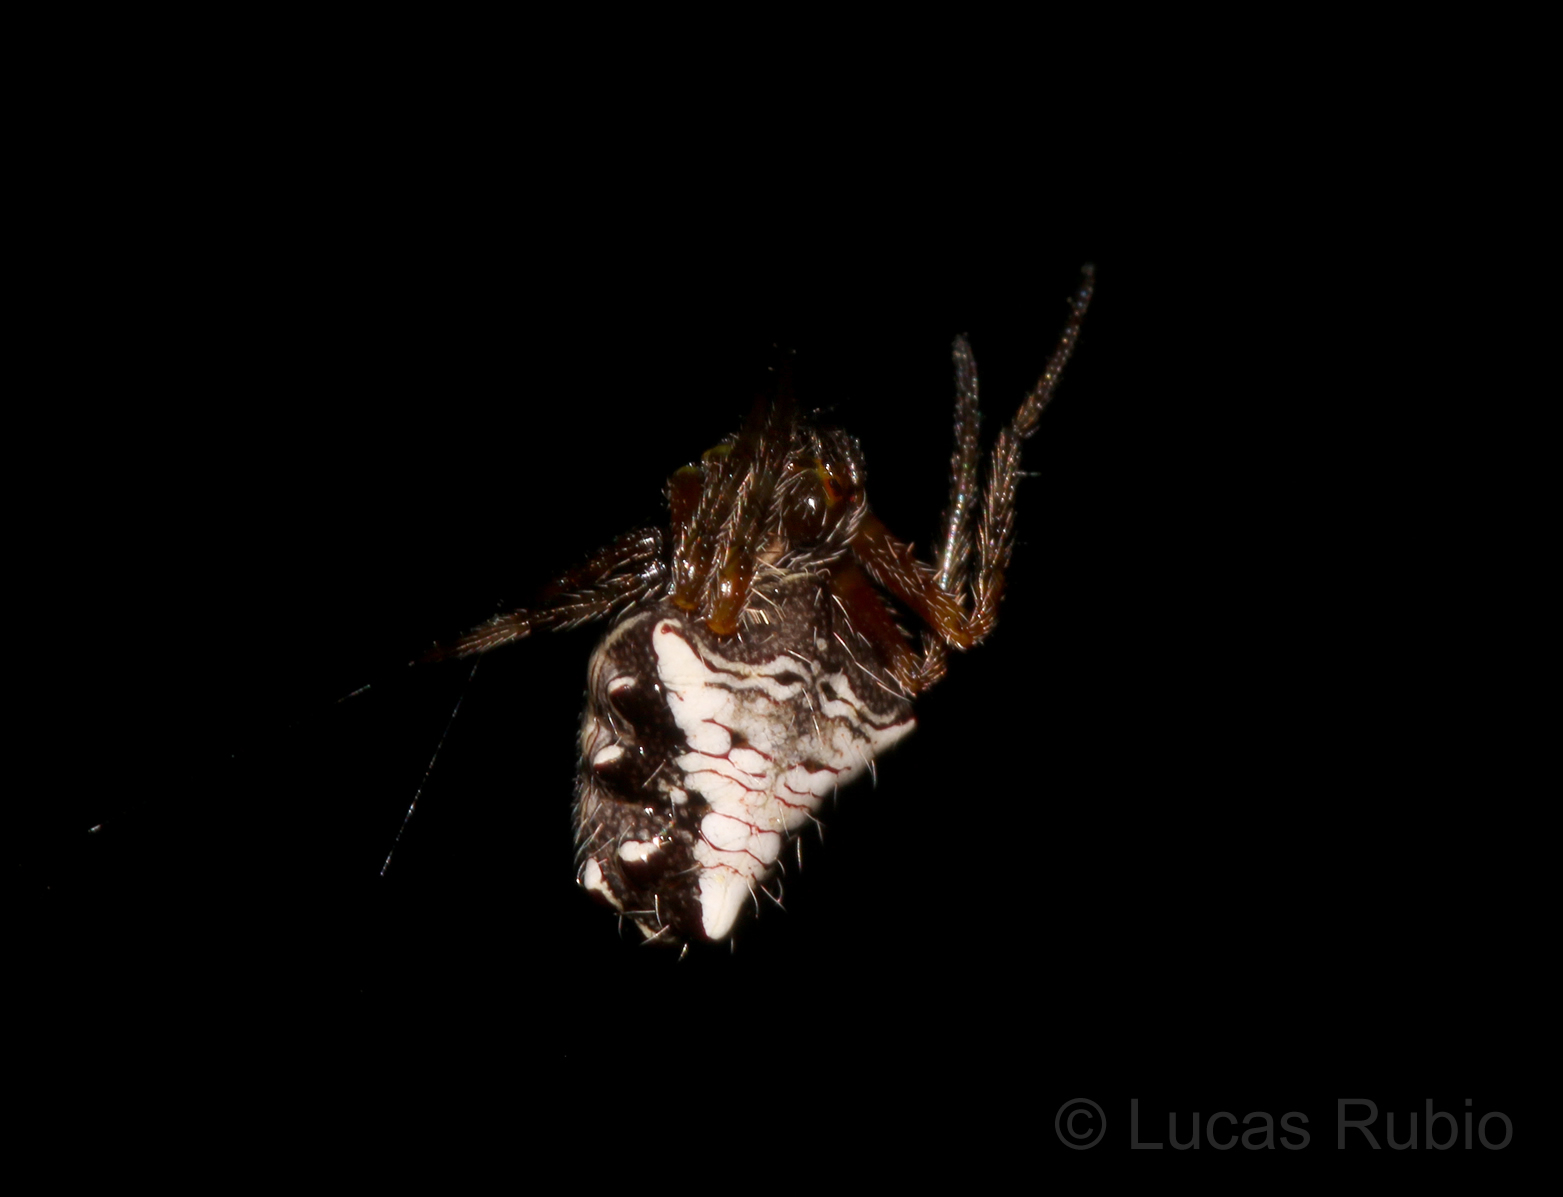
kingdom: Animalia
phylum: Arthropoda
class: Arachnida
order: Araneae
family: Araneidae
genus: Verrucosa
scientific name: Verrucosa meridionalis
